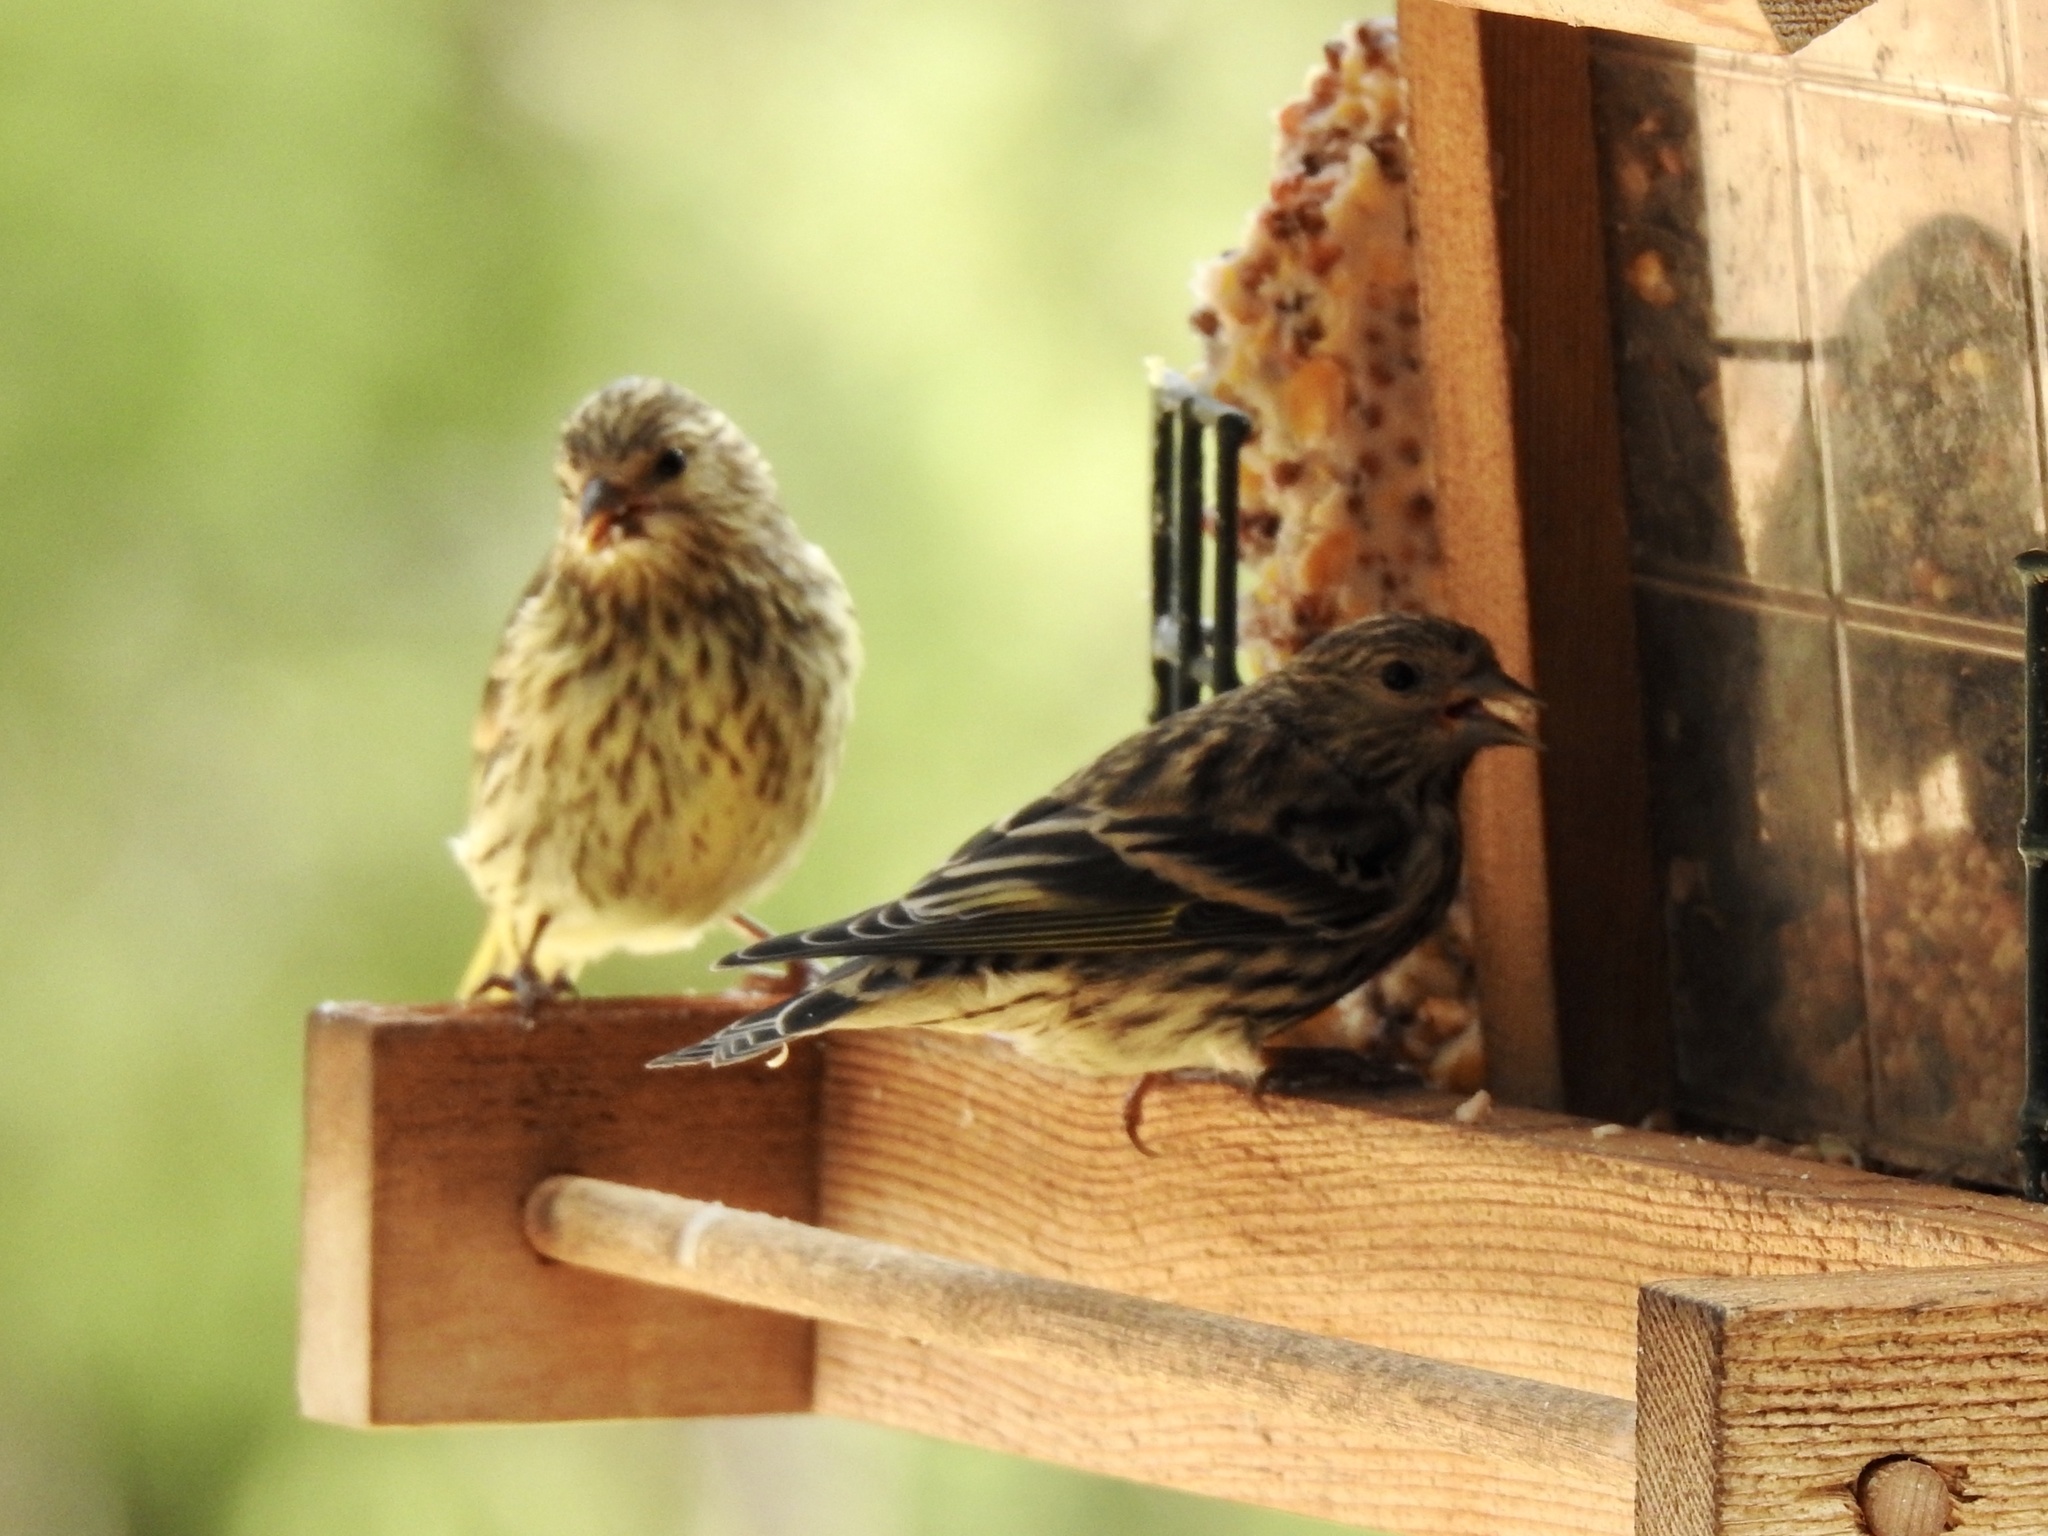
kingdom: Animalia
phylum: Chordata
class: Aves
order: Passeriformes
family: Fringillidae
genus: Spinus
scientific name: Spinus pinus
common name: Pine siskin
